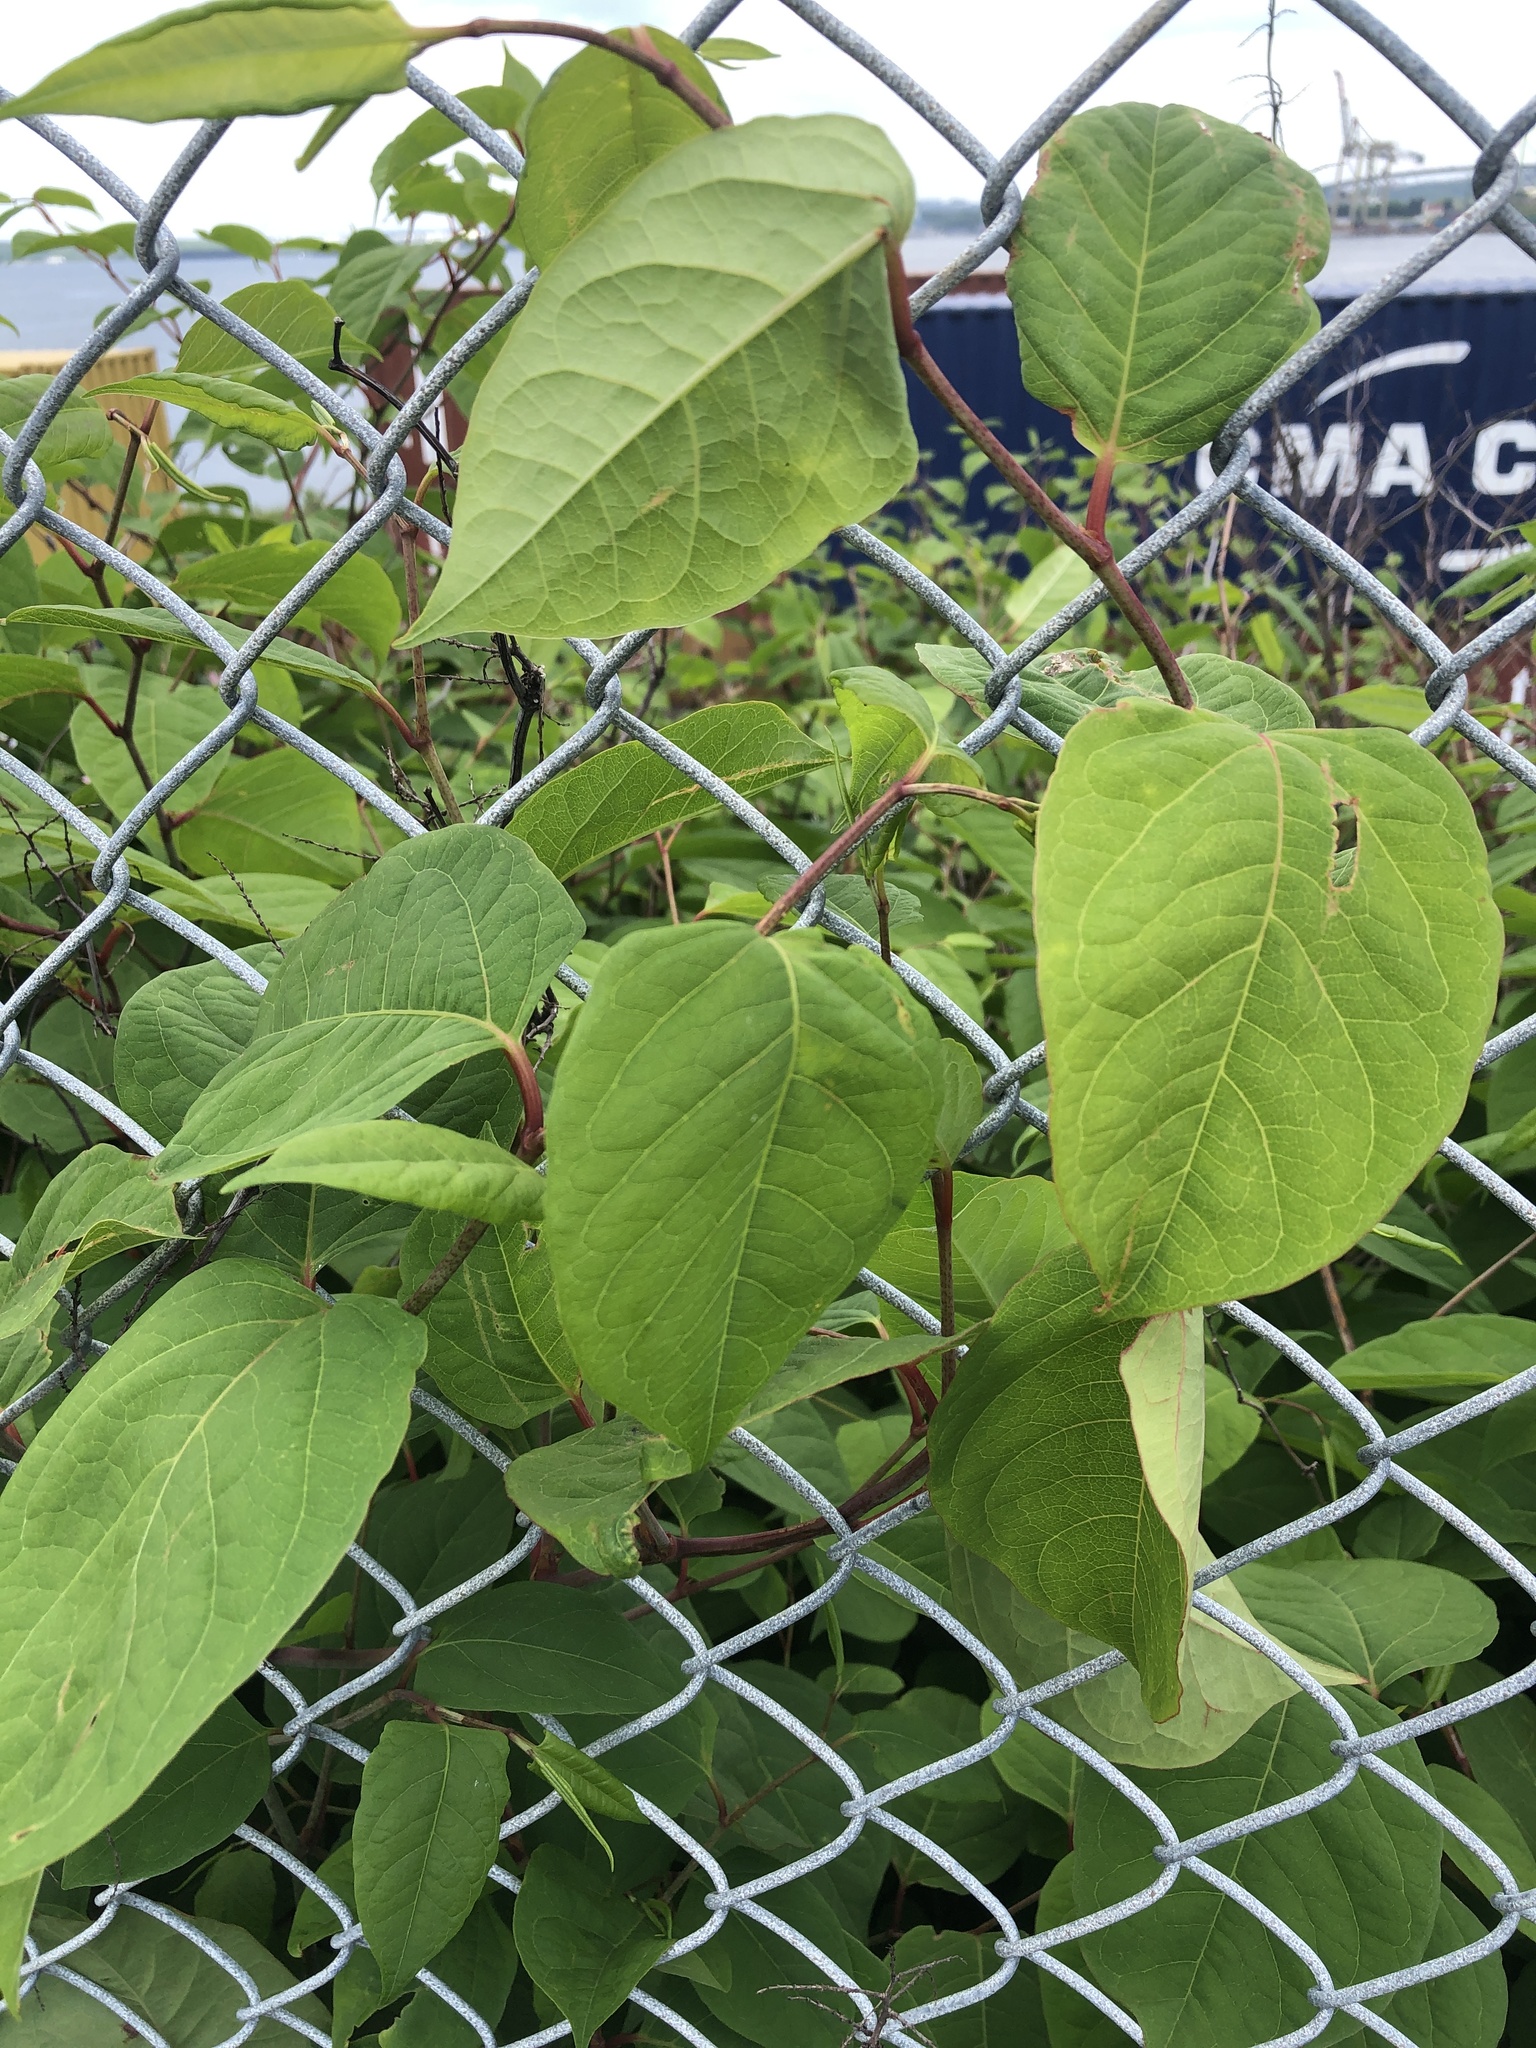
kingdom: Plantae
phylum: Tracheophyta
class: Magnoliopsida
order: Caryophyllales
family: Polygonaceae
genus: Reynoutria
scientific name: Reynoutria japonica
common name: Japanese knotweed
